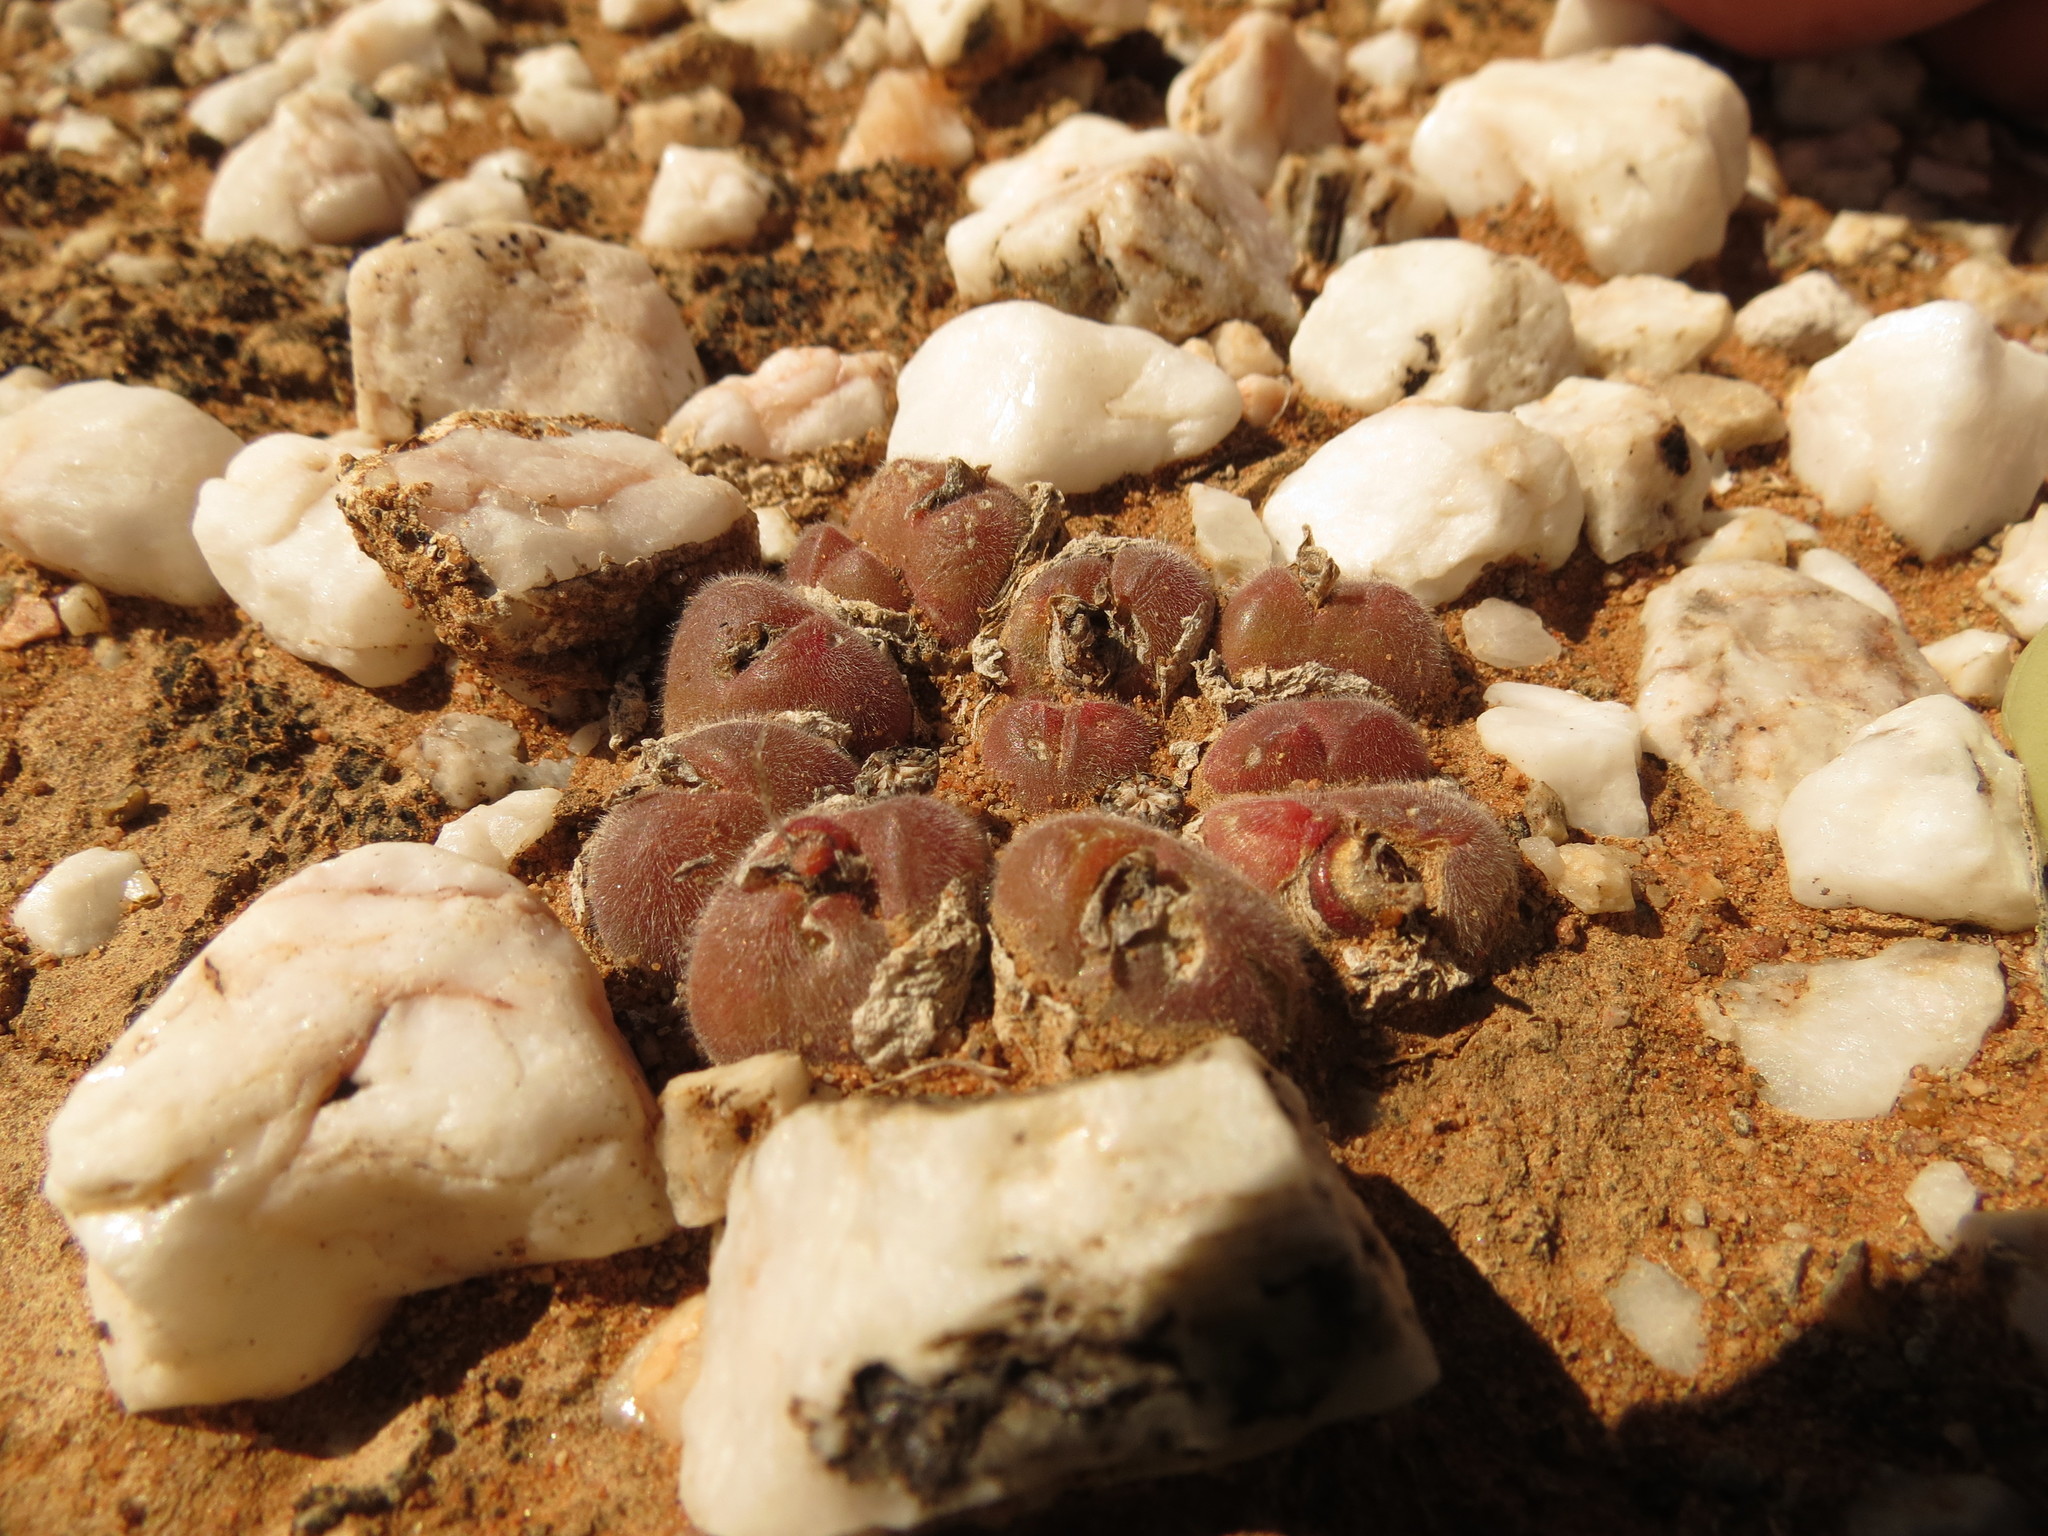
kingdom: Plantae
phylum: Tracheophyta
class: Magnoliopsida
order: Caryophyllales
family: Aizoaceae
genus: Gibbaeum
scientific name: Gibbaeum pilosulum
